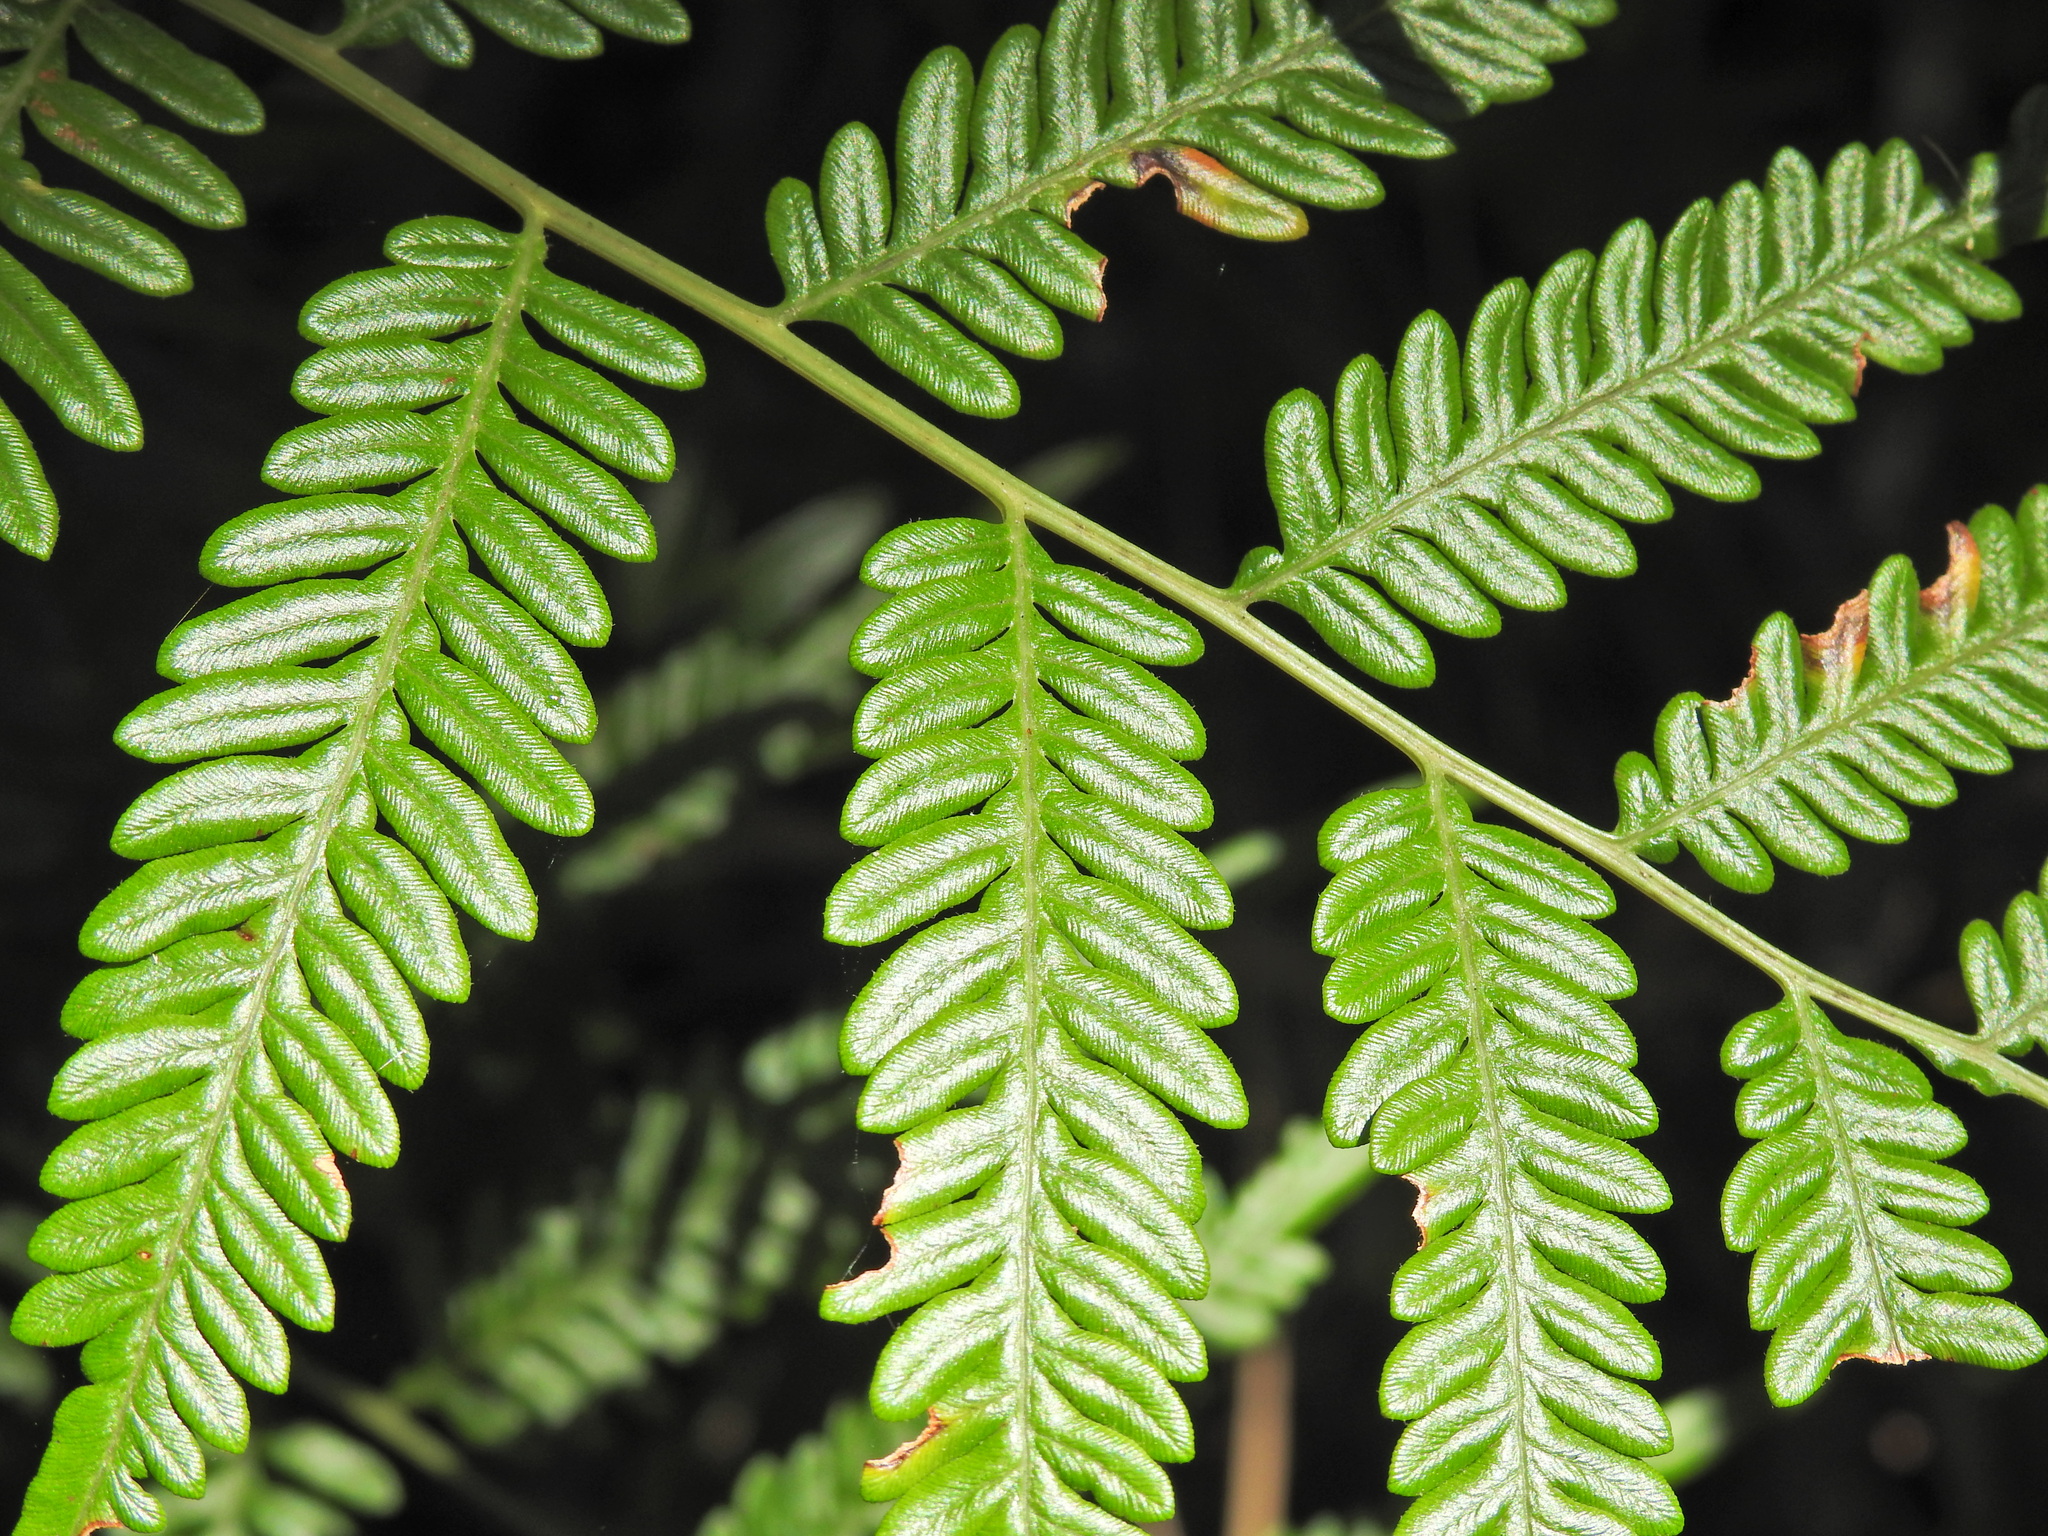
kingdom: Plantae
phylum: Tracheophyta
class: Polypodiopsida
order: Polypodiales
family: Dennstaedtiaceae
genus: Pteridium
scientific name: Pteridium esculentum
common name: Bracken fern
